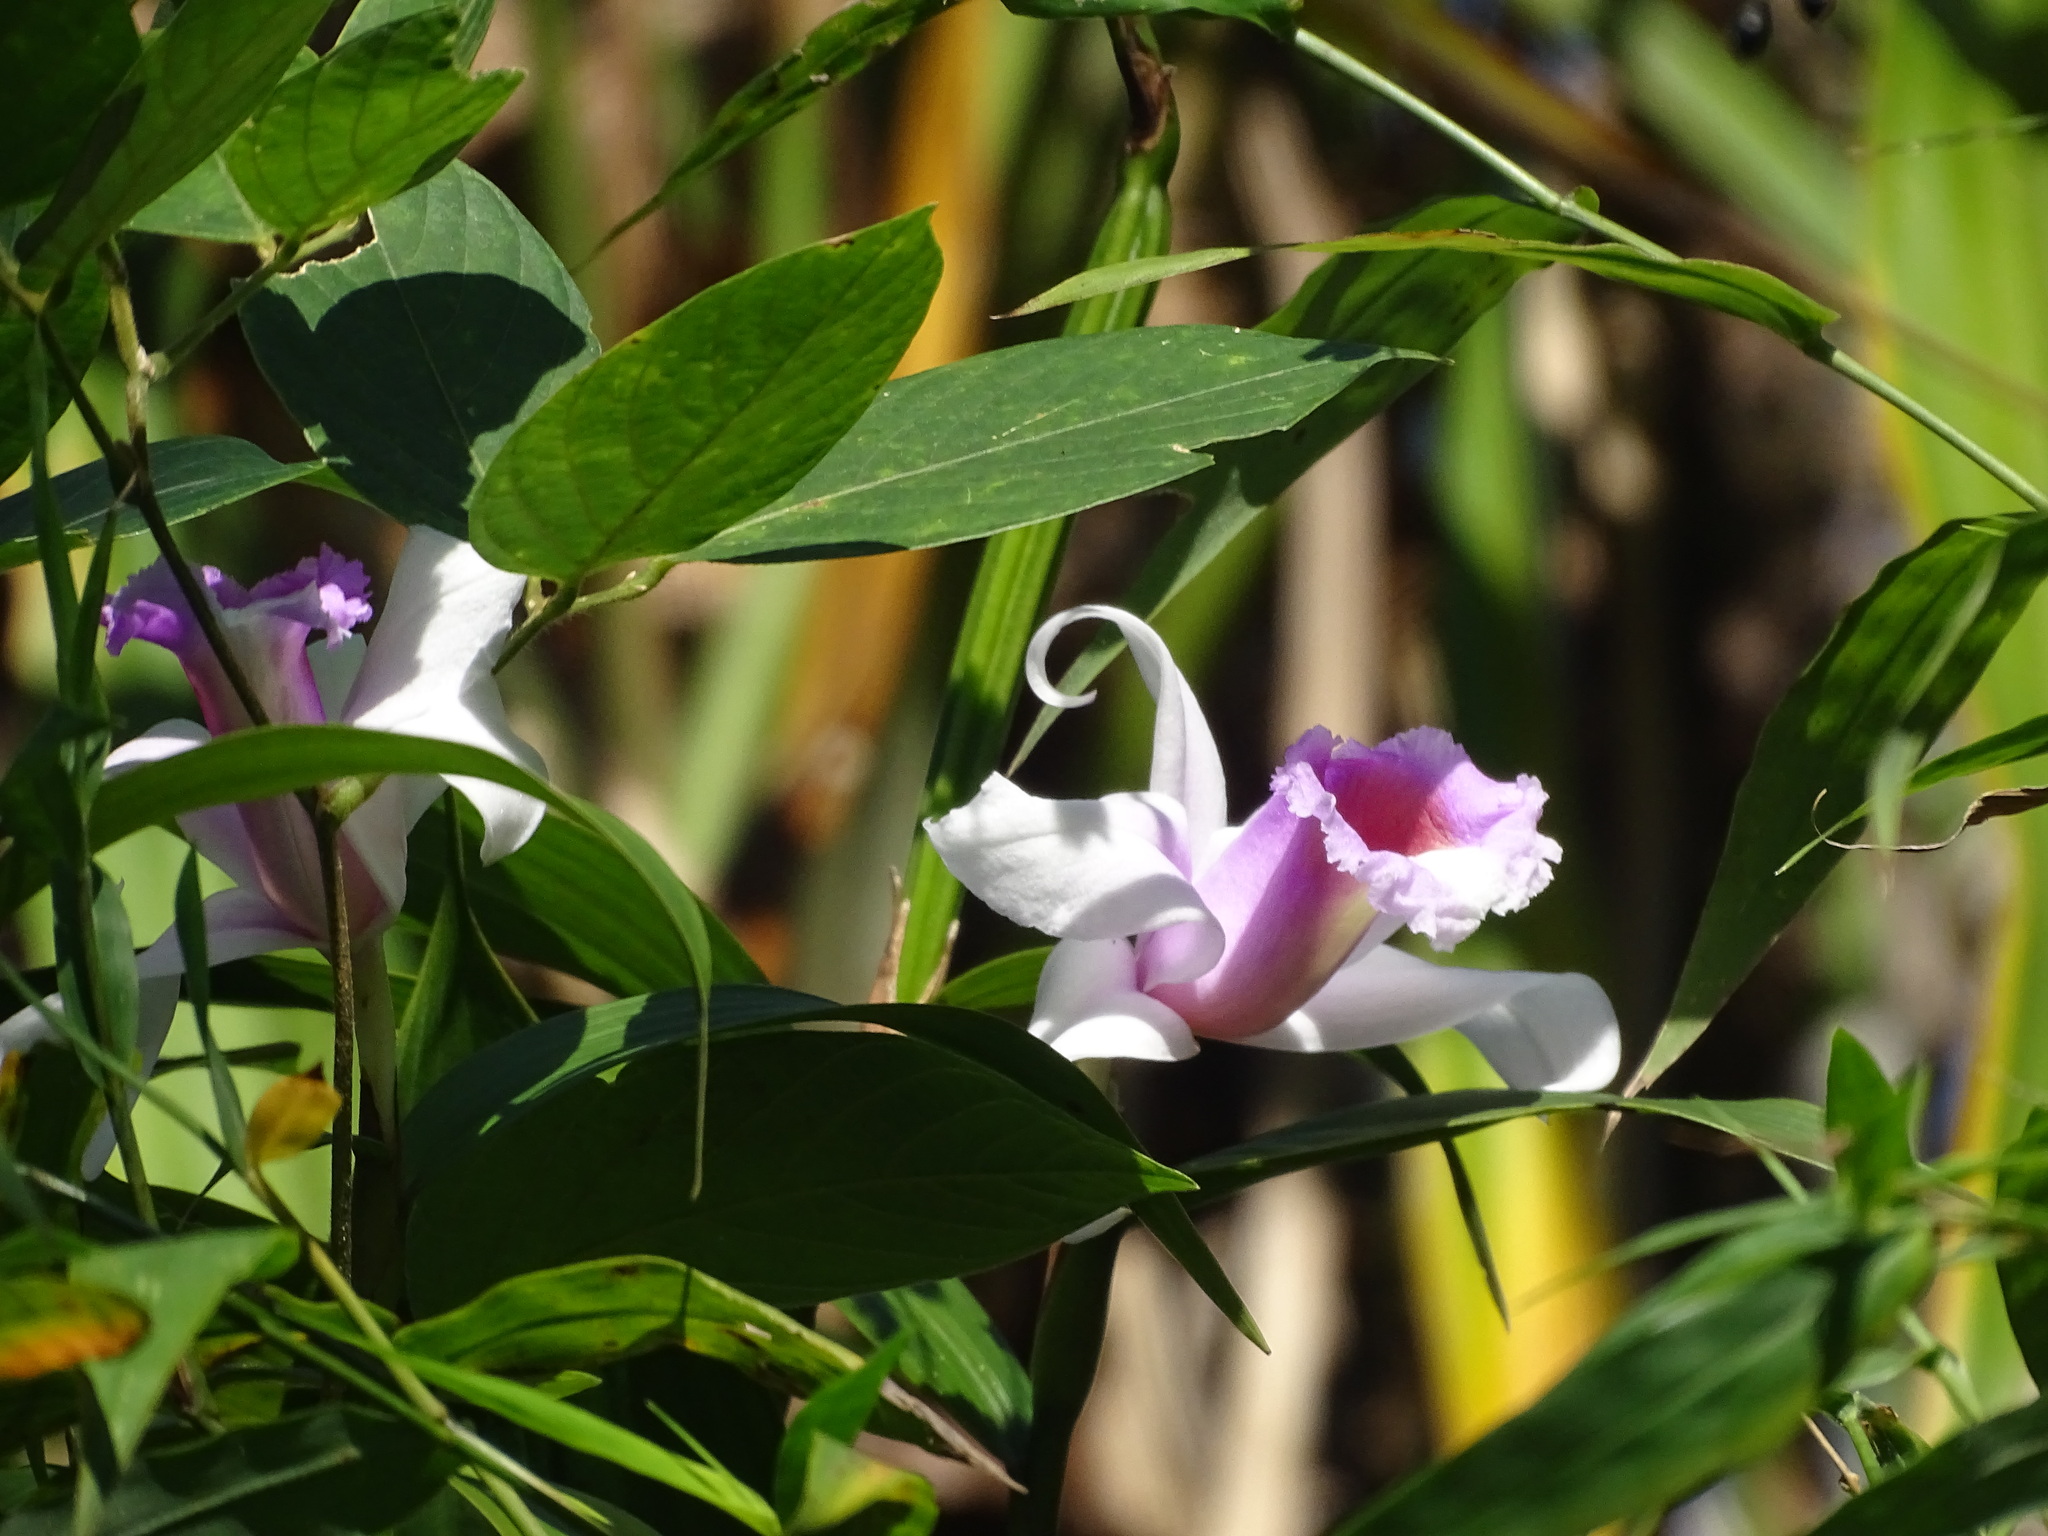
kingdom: Plantae
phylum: Tracheophyta
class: Liliopsida
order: Asparagales
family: Orchidaceae
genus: Sobralia
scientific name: Sobralia decora
